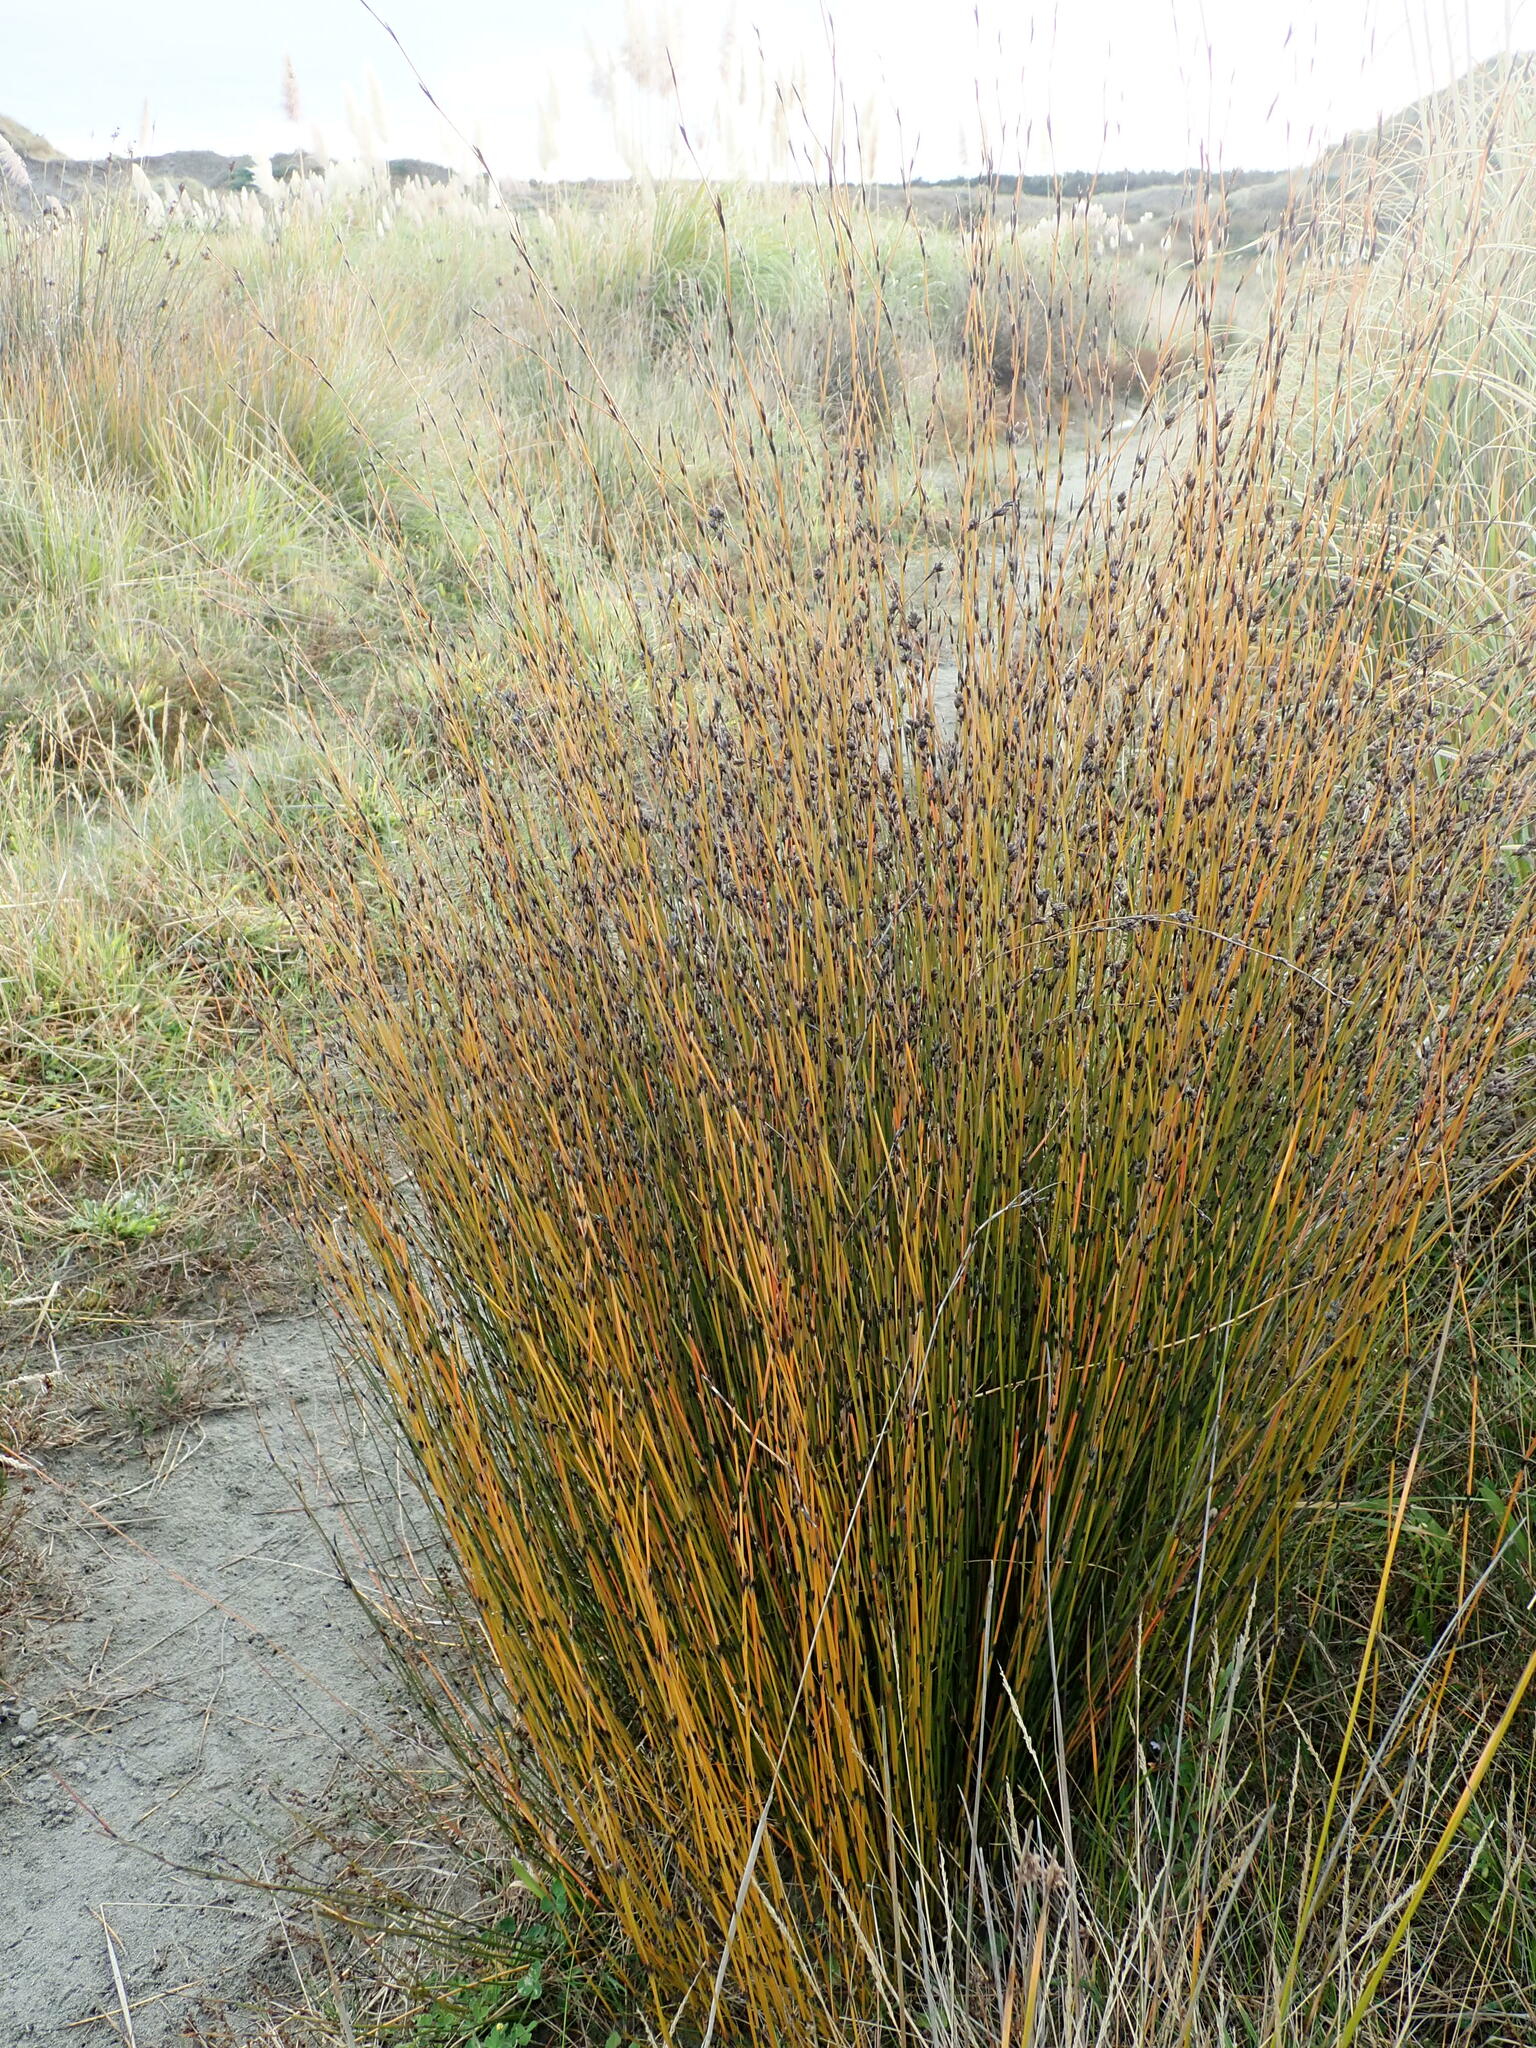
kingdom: Plantae
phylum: Tracheophyta
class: Liliopsida
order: Poales
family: Restionaceae
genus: Apodasmia
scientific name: Apodasmia similis
